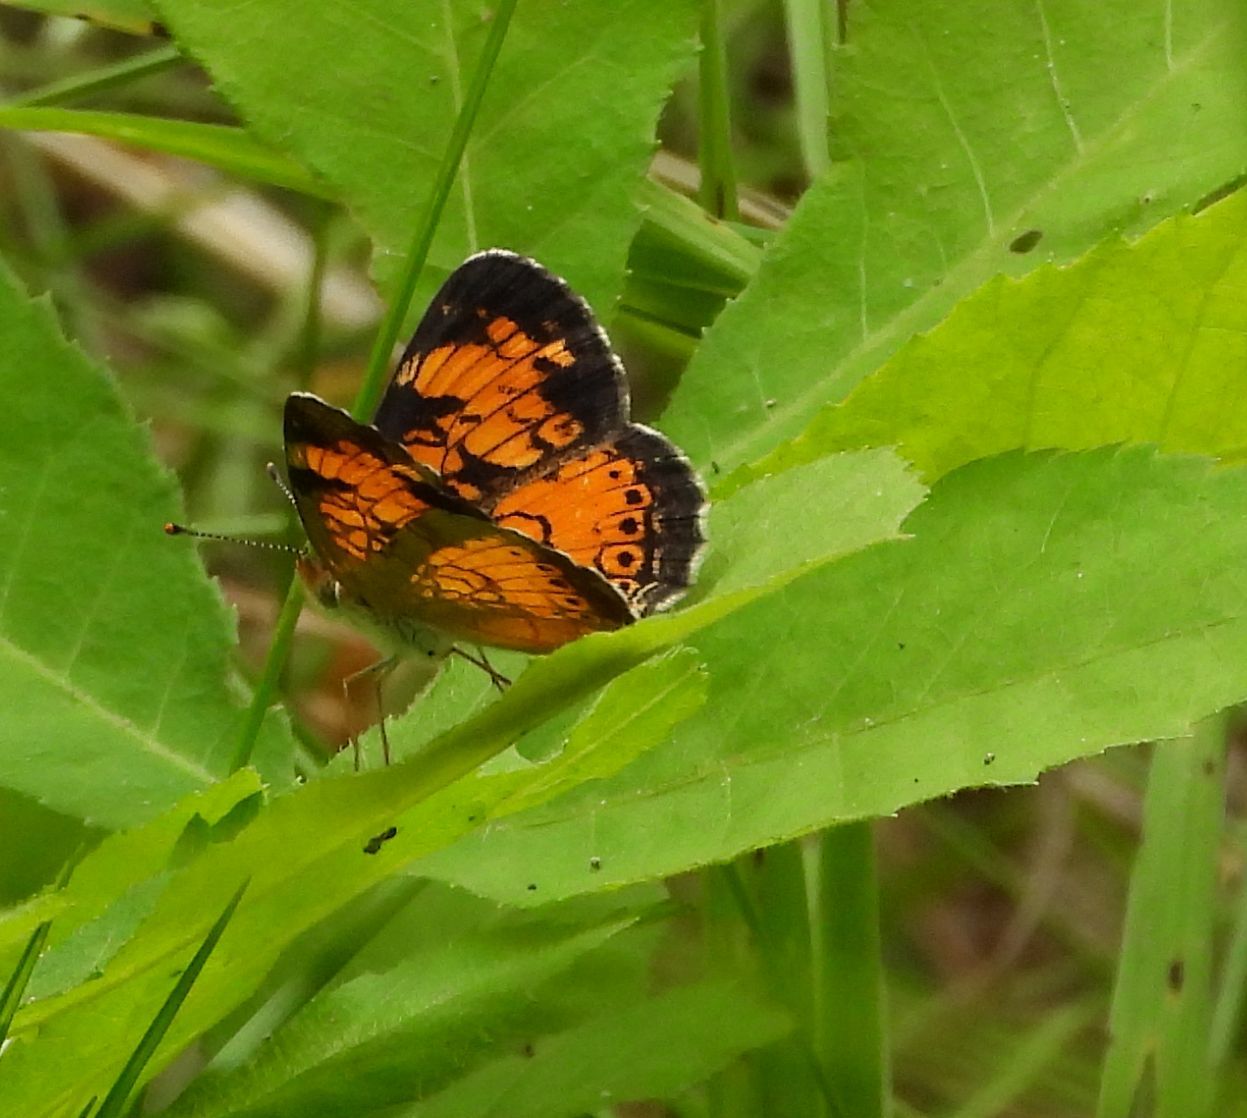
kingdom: Animalia
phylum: Arthropoda
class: Insecta
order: Lepidoptera
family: Nymphalidae
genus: Phyciodes
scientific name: Phyciodes tharos
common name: Pearl crescent
